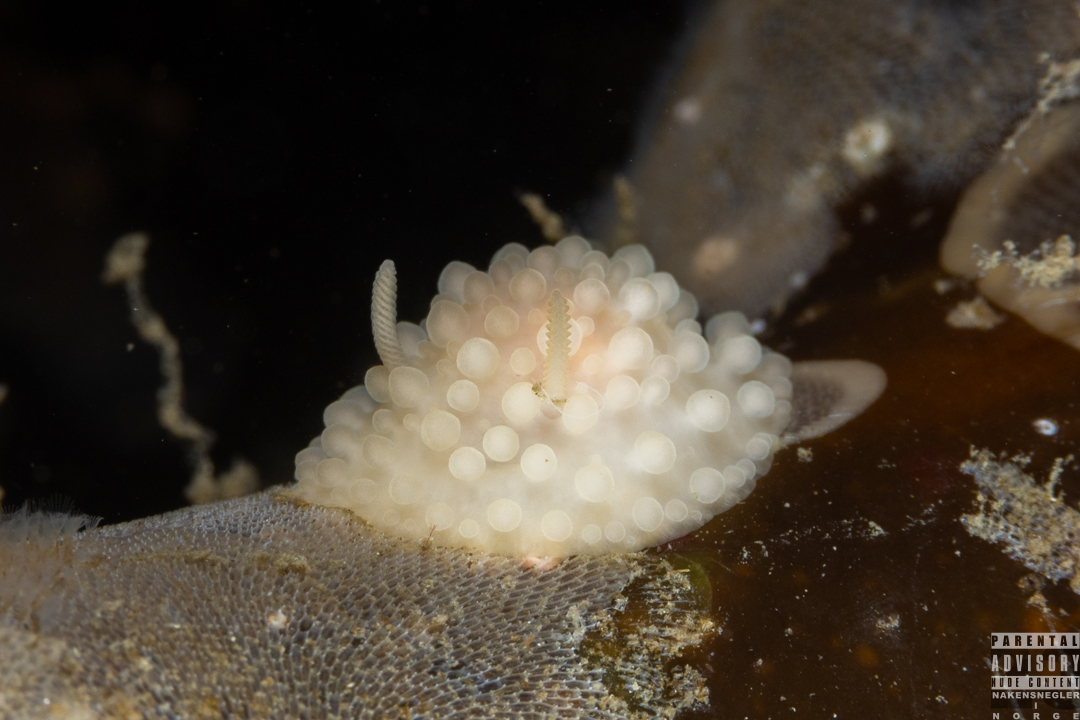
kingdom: Animalia
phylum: Mollusca
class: Gastropoda
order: Nudibranchia
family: Onchidorididae
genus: Adalaria
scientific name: Adalaria loveni
